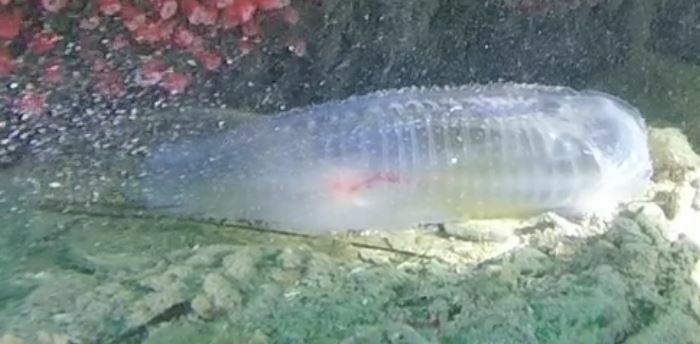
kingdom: Animalia
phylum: Chordata
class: Thaliacea
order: Salpida
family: Salpidae
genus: Thetys
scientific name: Thetys vagina
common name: Vagina salp
